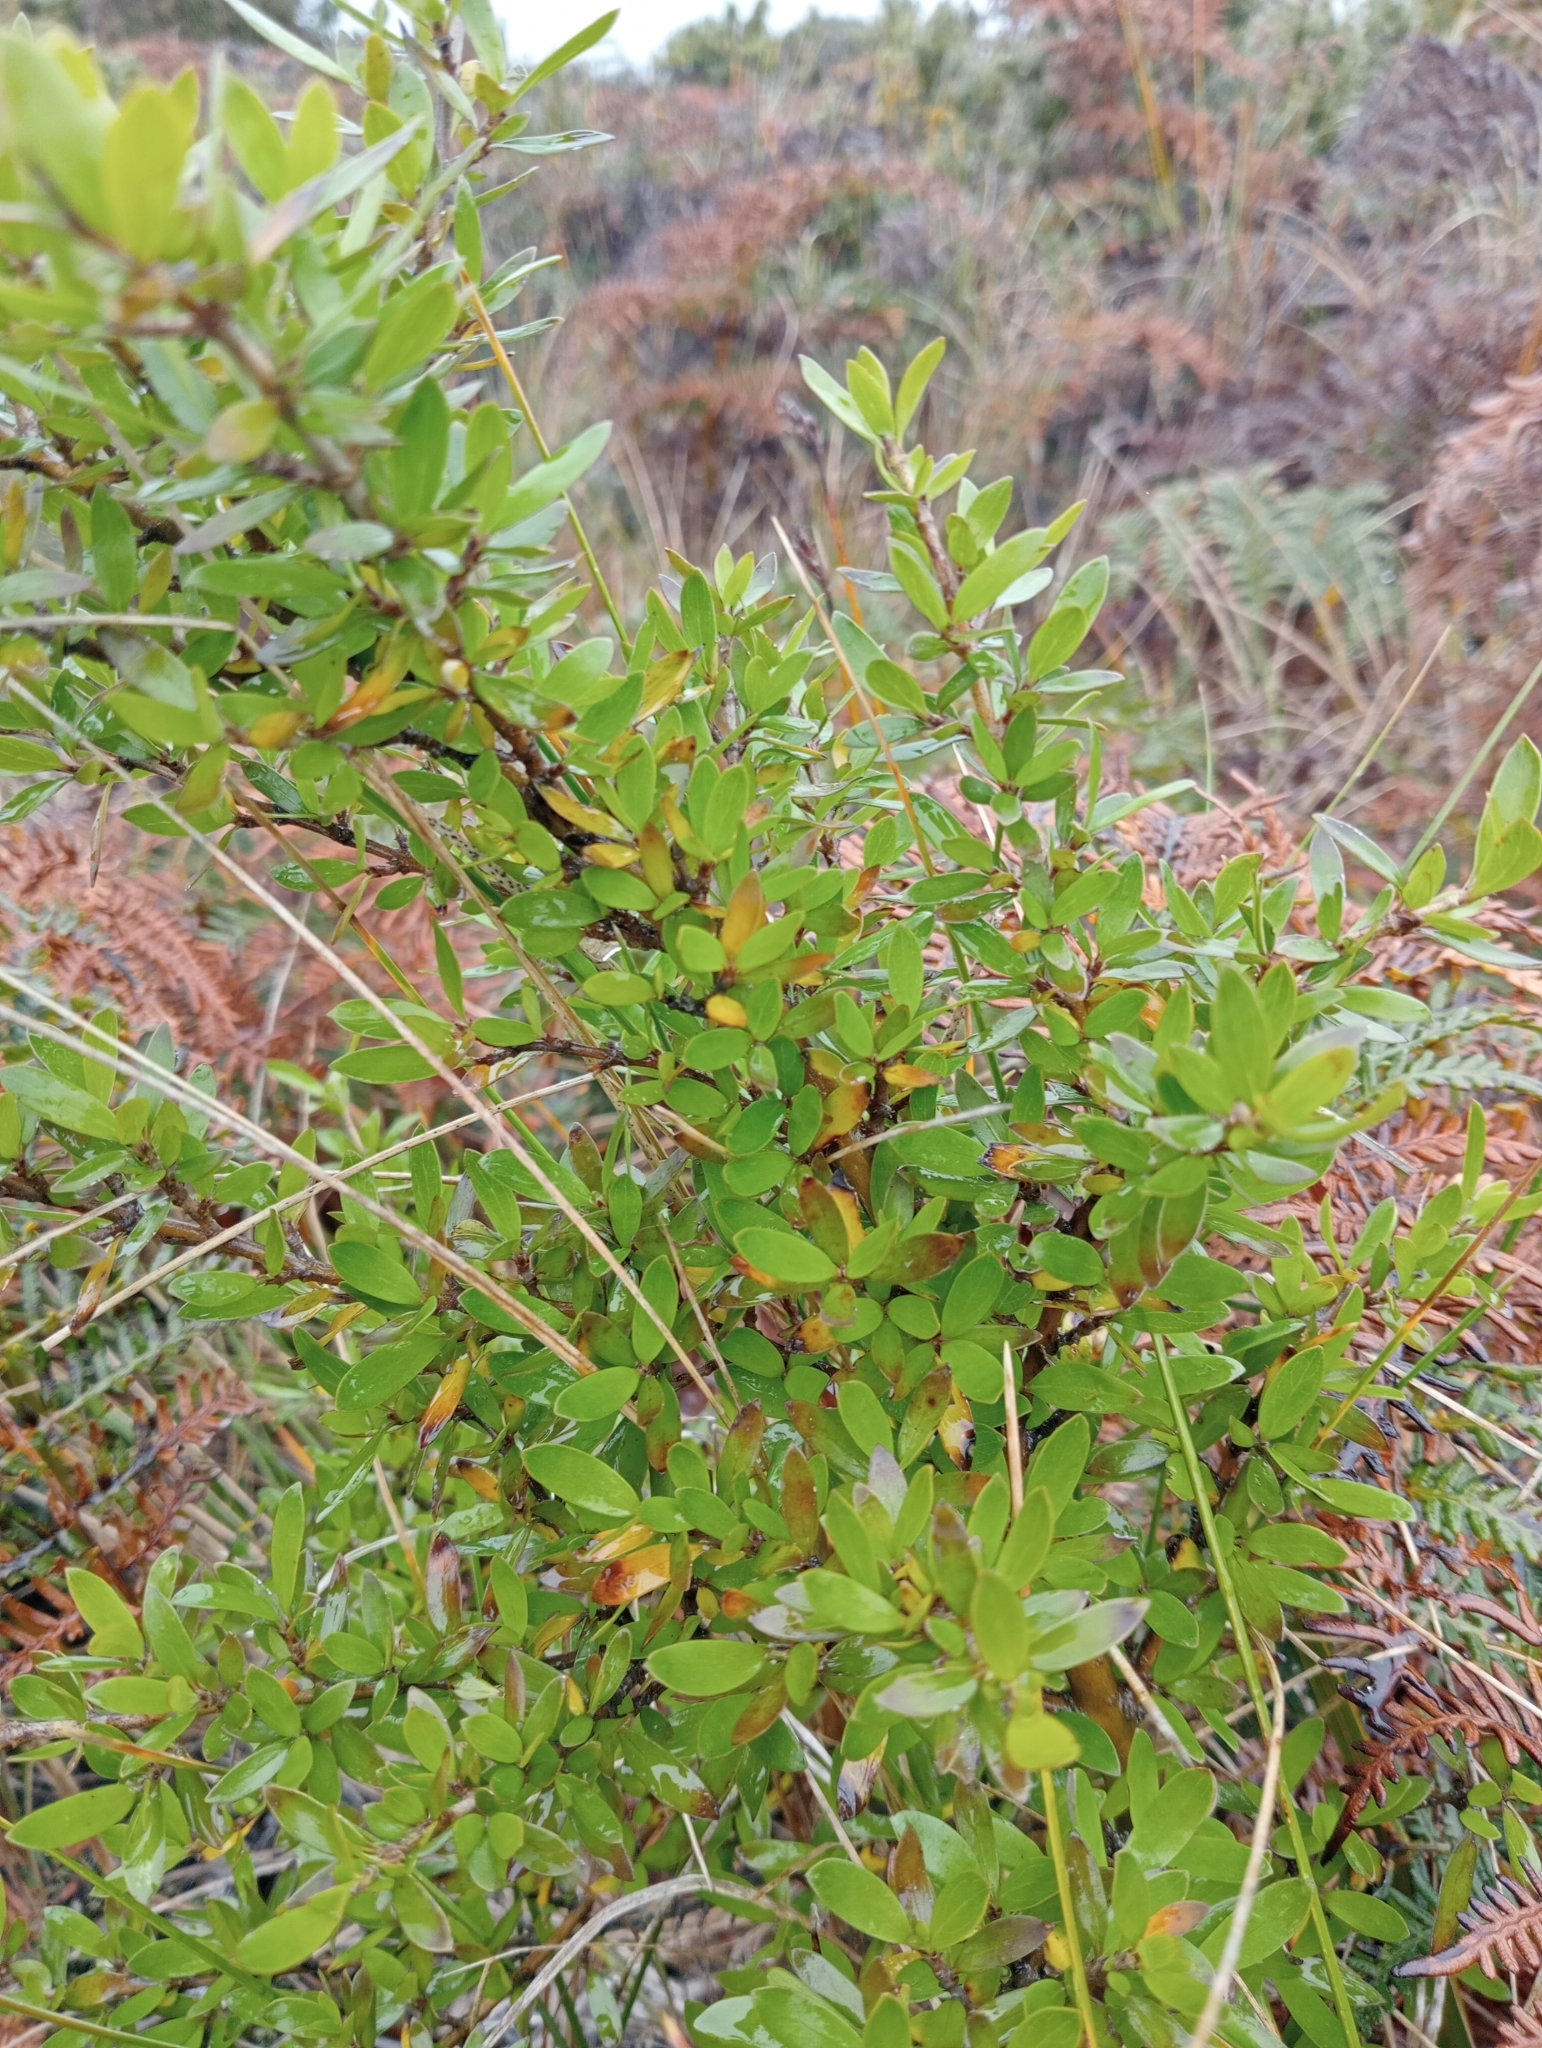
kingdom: Plantae
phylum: Tracheophyta
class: Magnoliopsida
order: Gentianales
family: Rubiaceae
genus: Coprosma
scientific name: Coprosma propinqua
